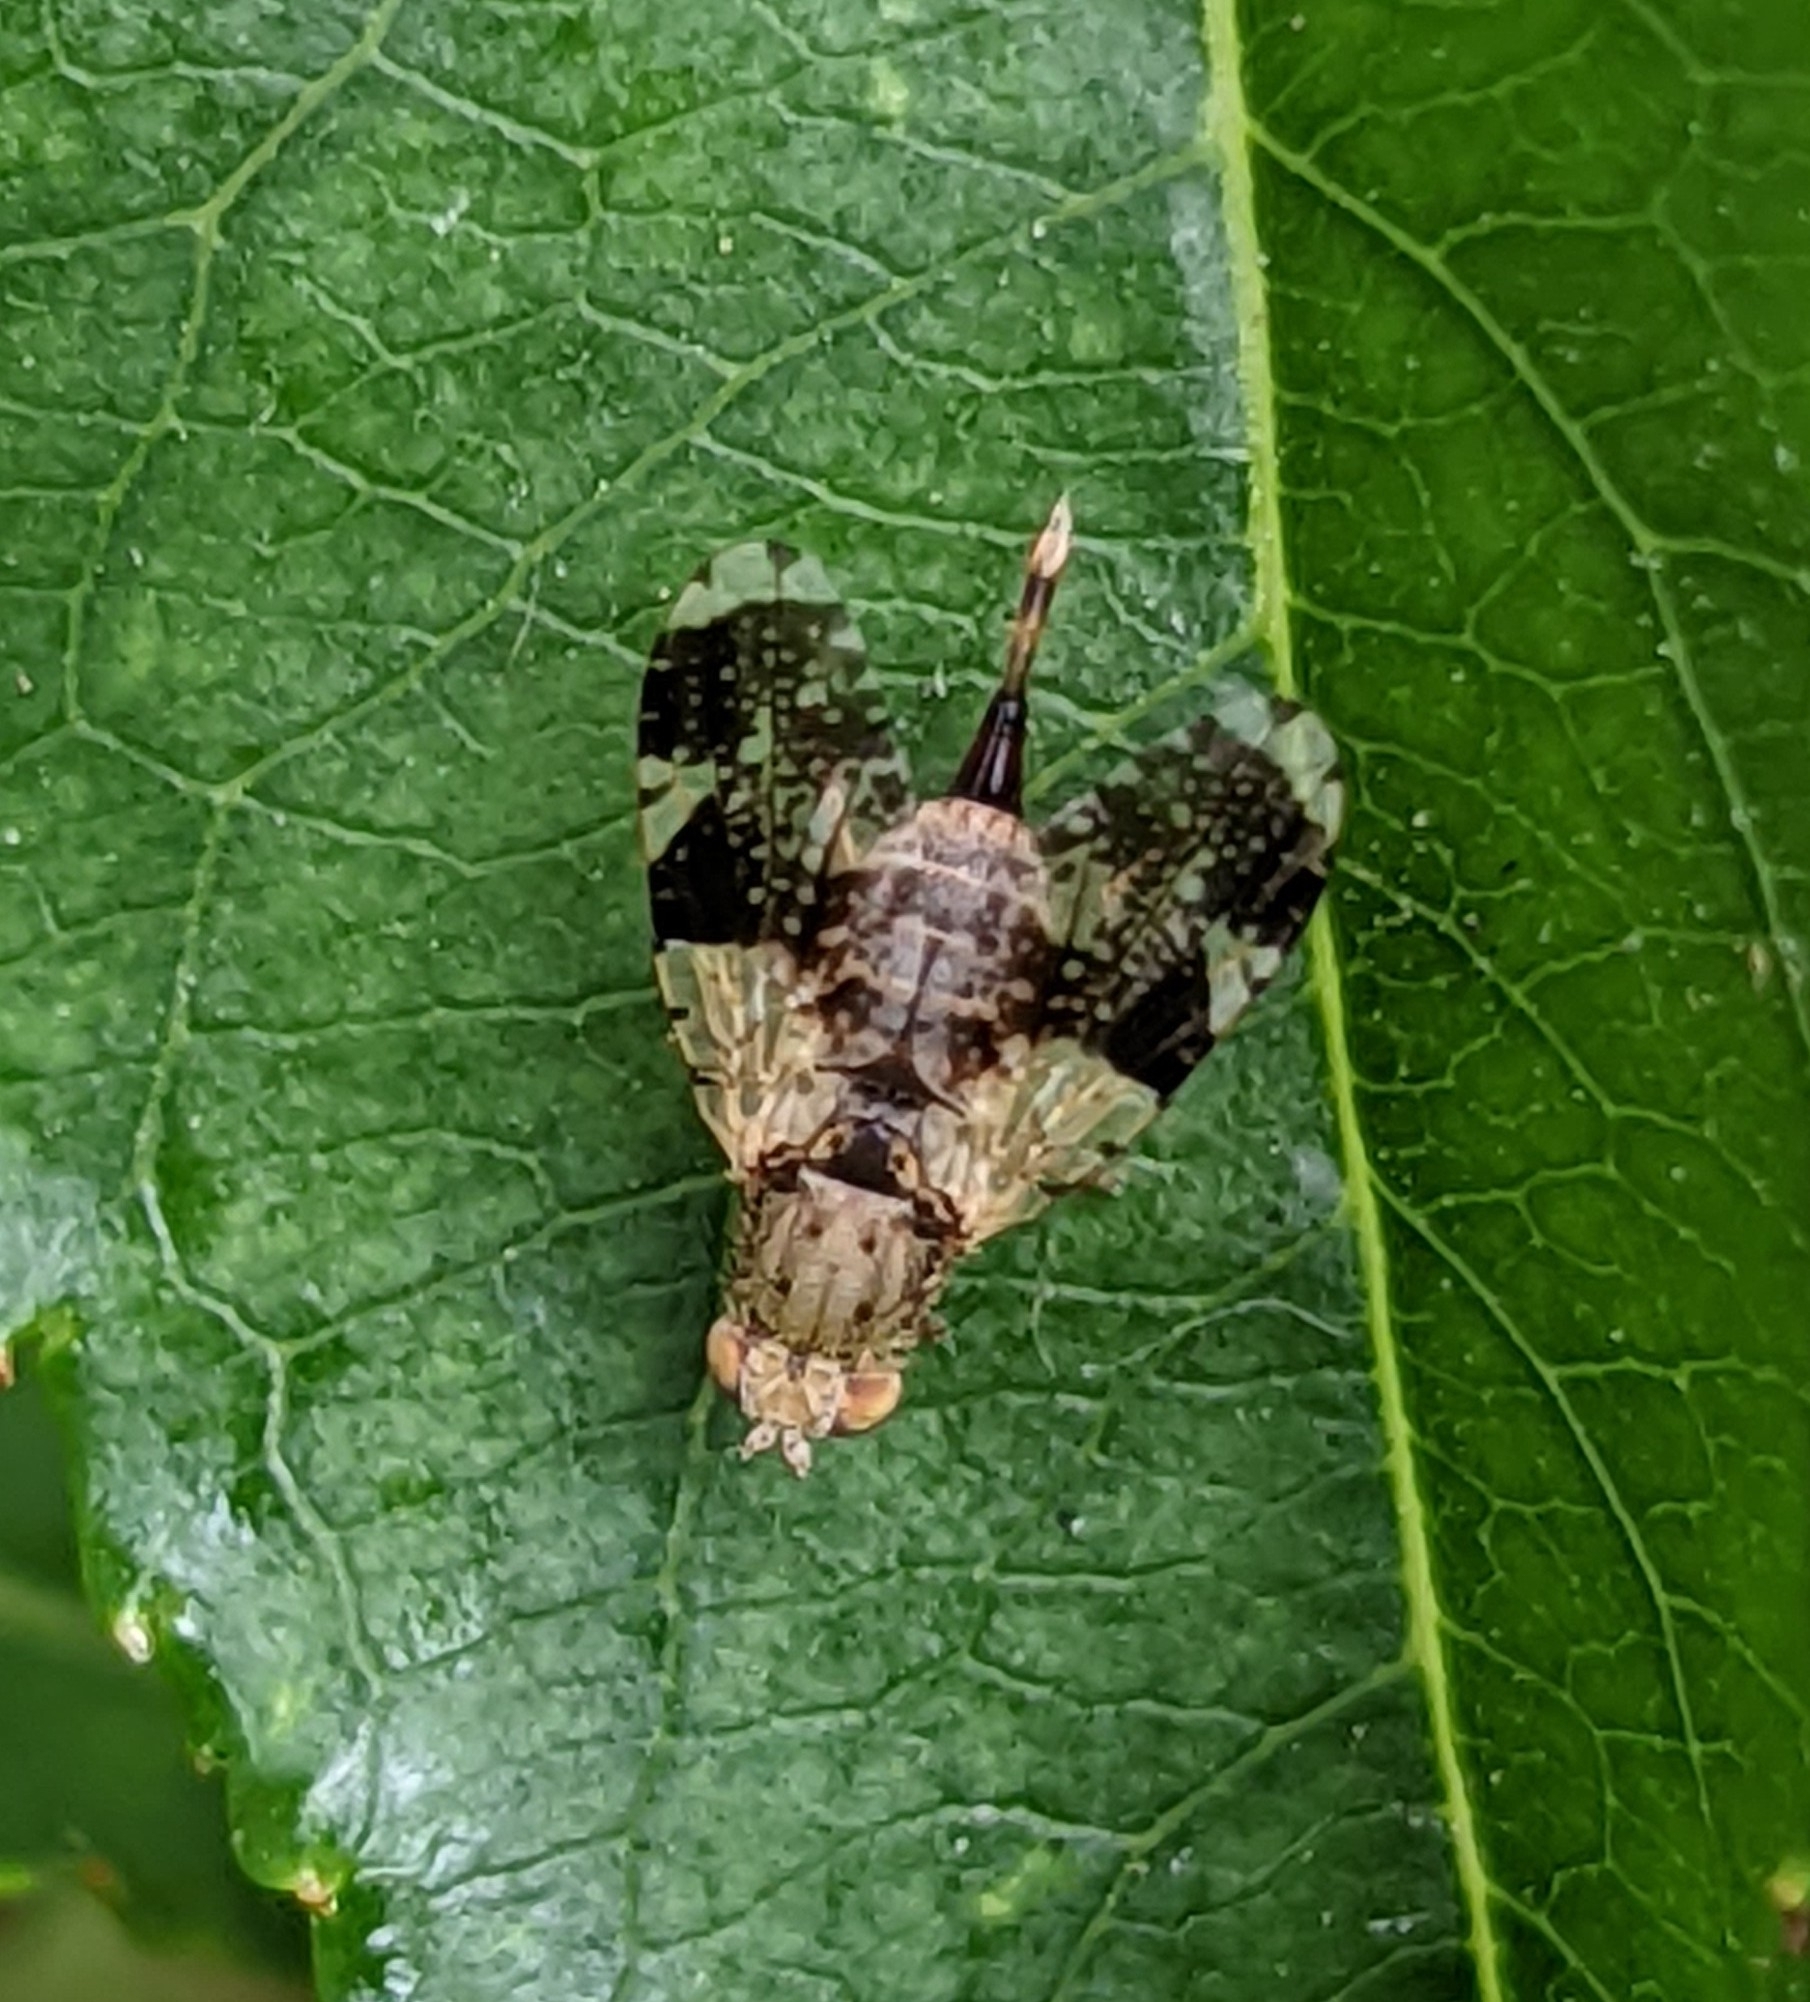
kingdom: Animalia
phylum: Arthropoda
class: Insecta
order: Diptera
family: Tephritidae
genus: Tephritis
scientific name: Tephritis formosa
